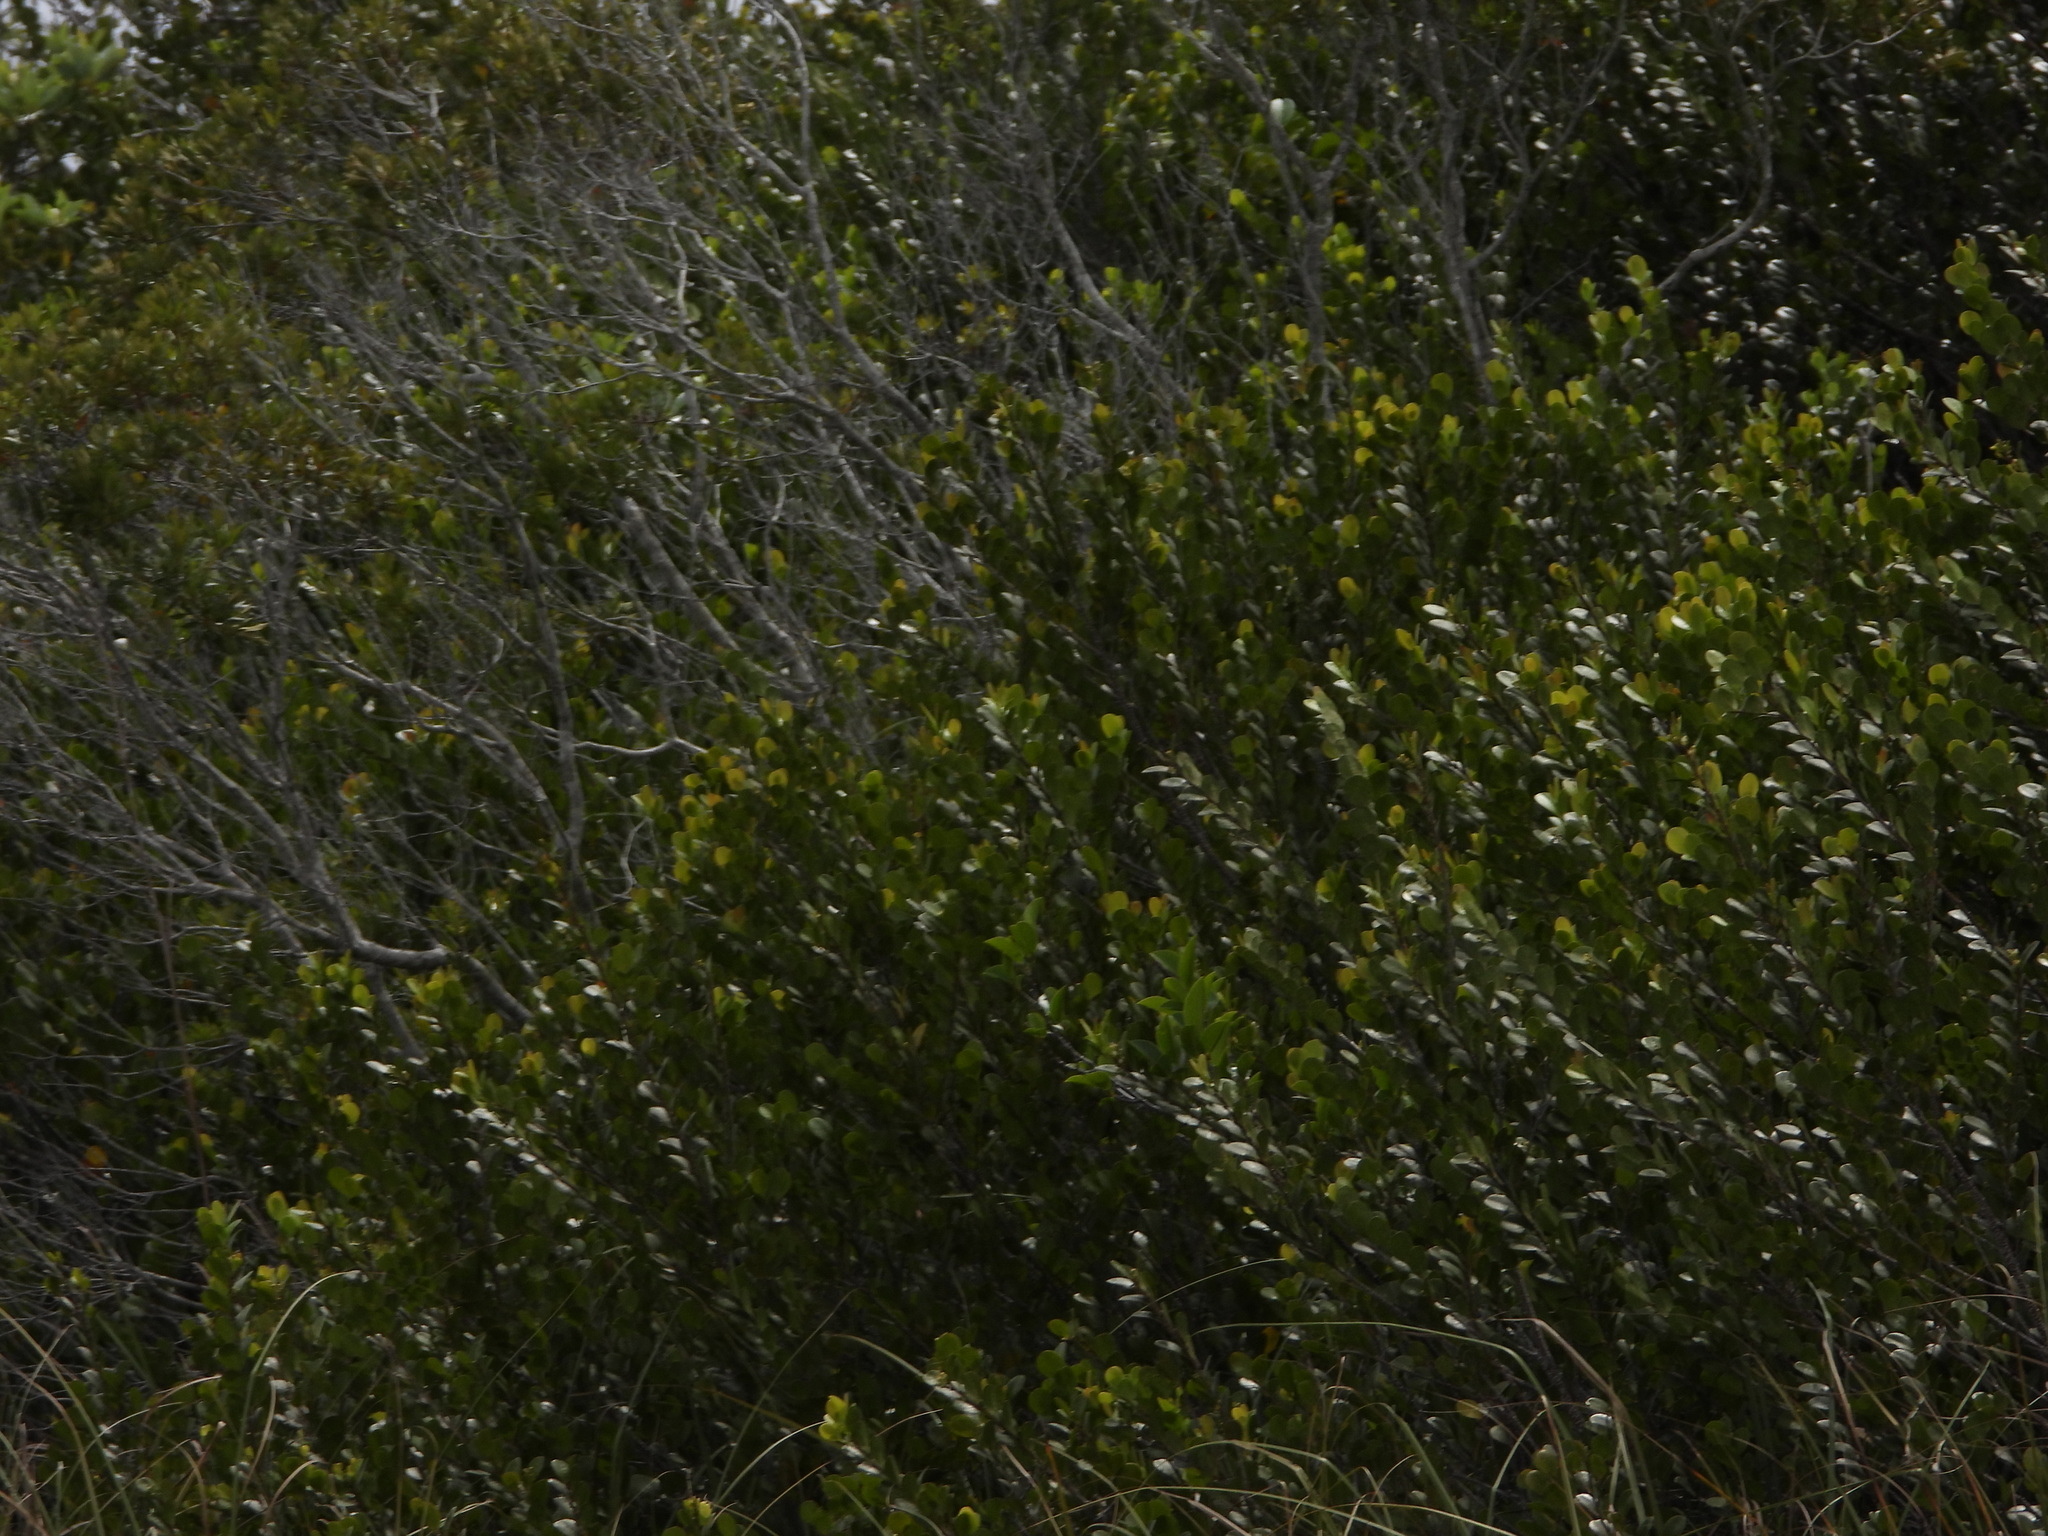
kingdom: Plantae
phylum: Tracheophyta
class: Magnoliopsida
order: Malpighiales
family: Chrysobalanaceae
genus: Chrysobalanus
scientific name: Chrysobalanus icaco
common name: Coco plum
